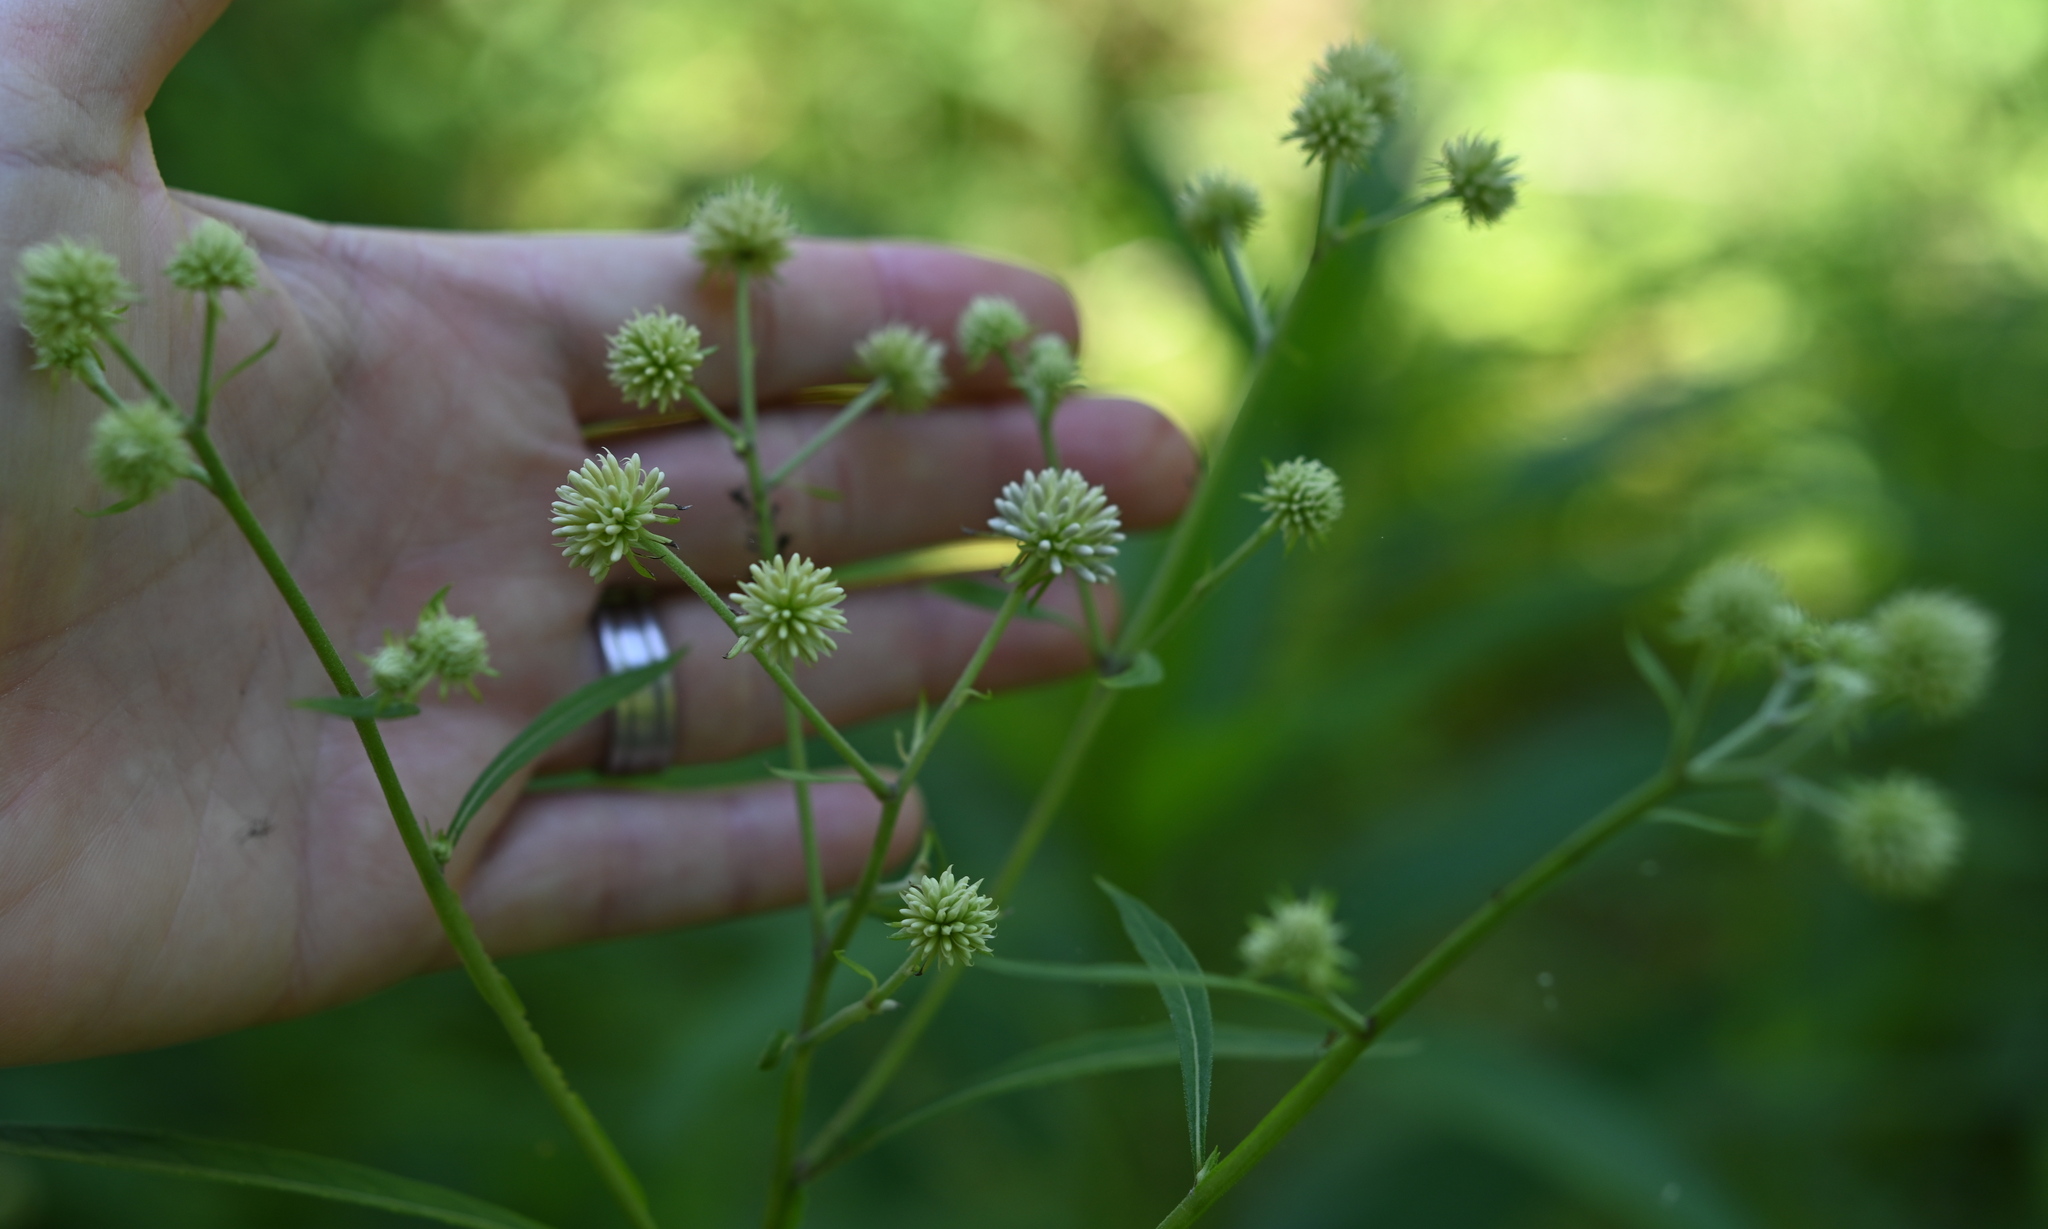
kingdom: Plantae
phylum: Tracheophyta
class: Magnoliopsida
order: Asterales
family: Asteraceae
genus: Verbesina
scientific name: Verbesina walteri
